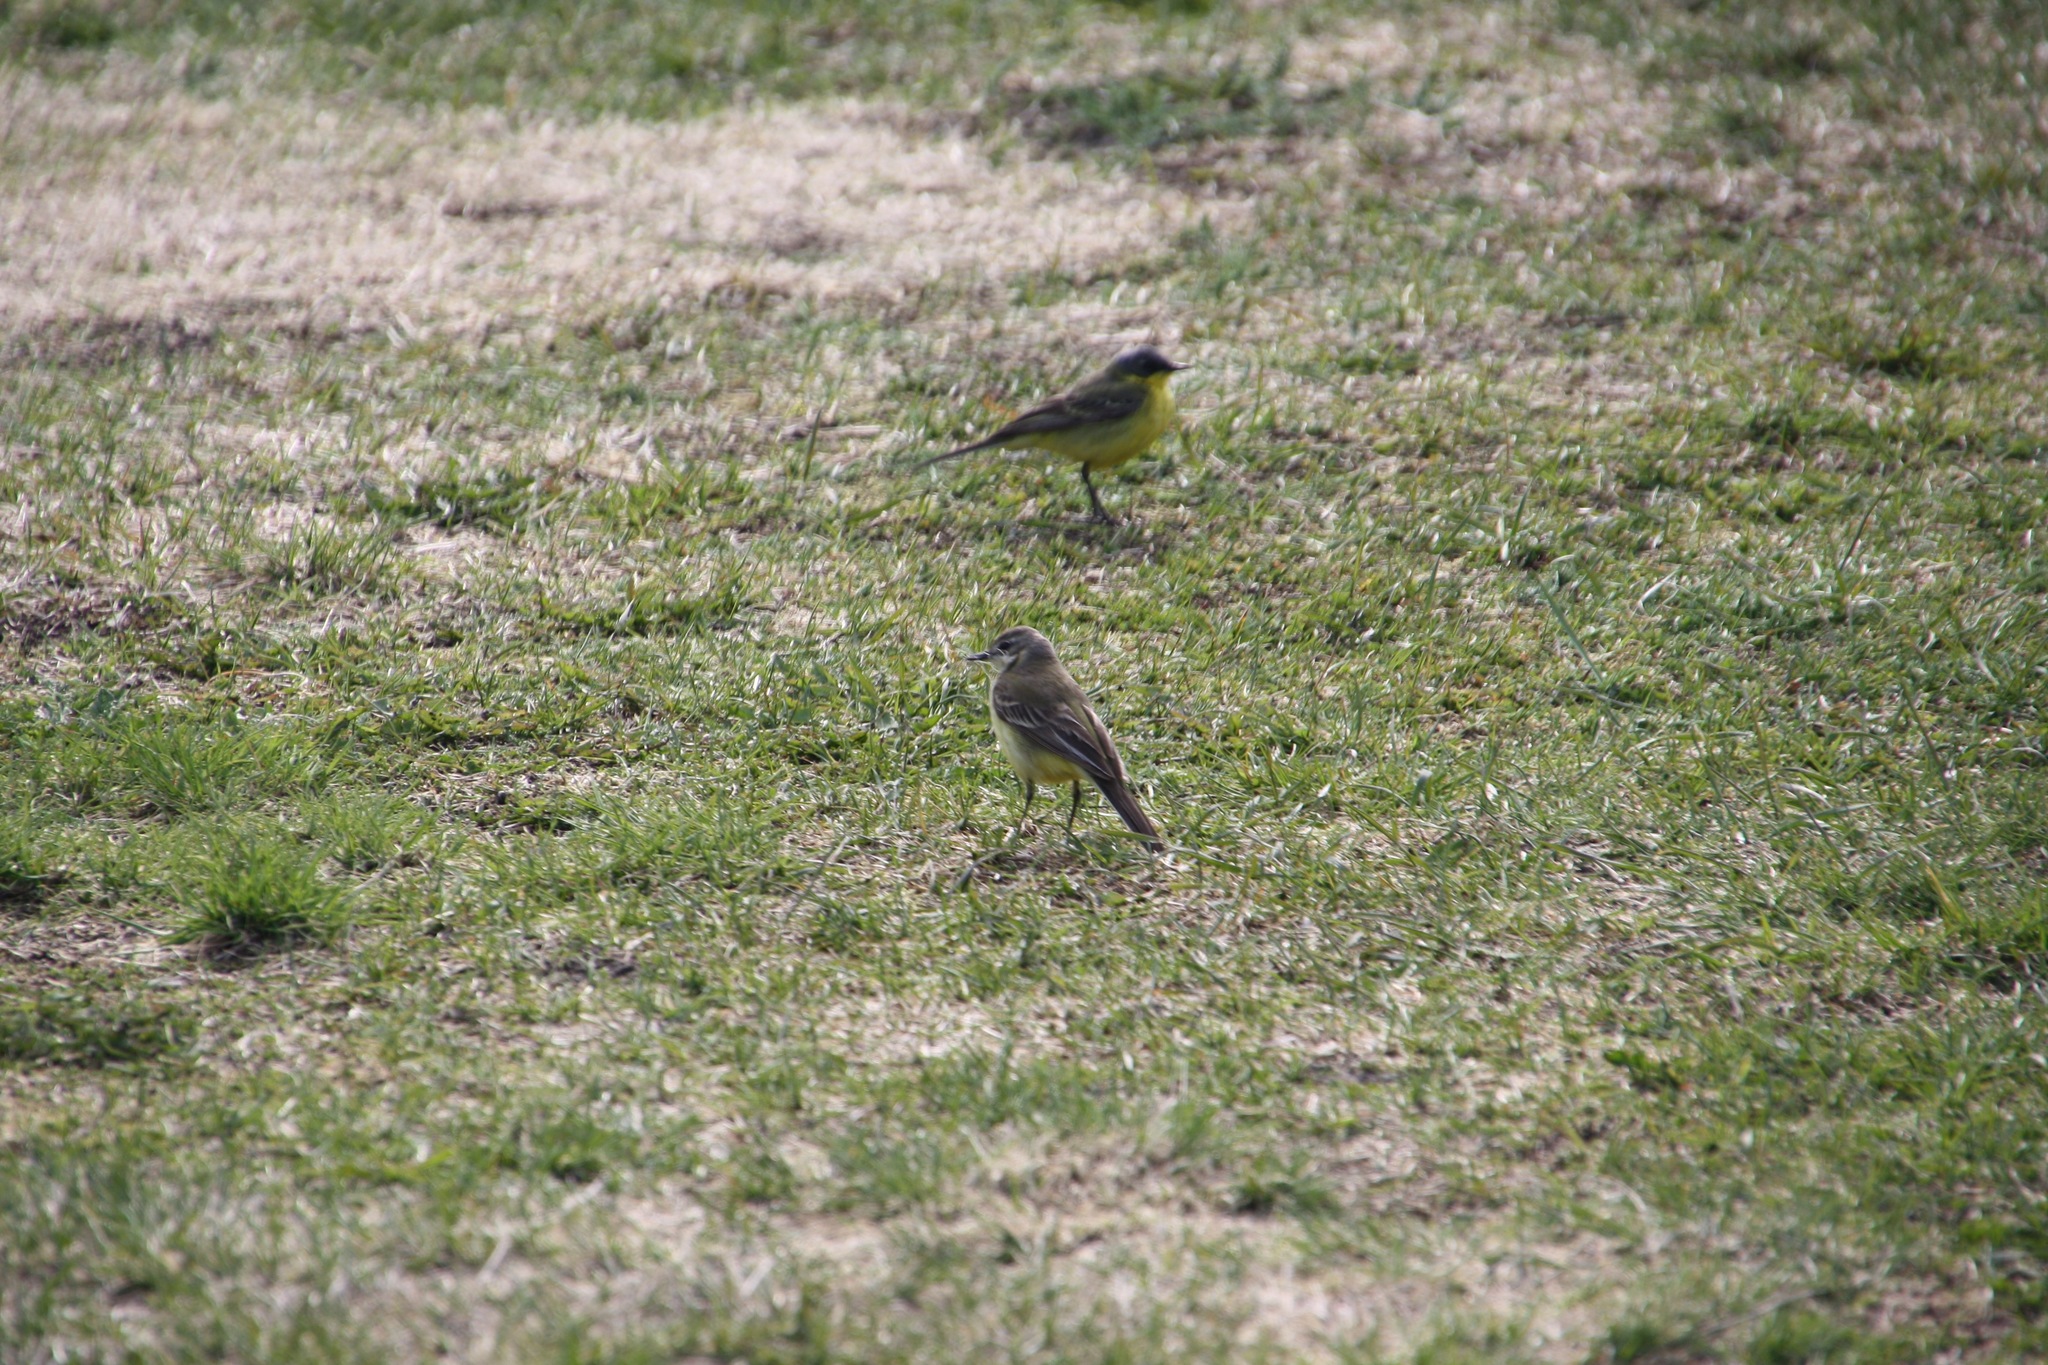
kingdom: Animalia
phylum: Chordata
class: Aves
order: Passeriformes
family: Motacillidae
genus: Motacilla
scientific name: Motacilla flava
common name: Western yellow wagtail
